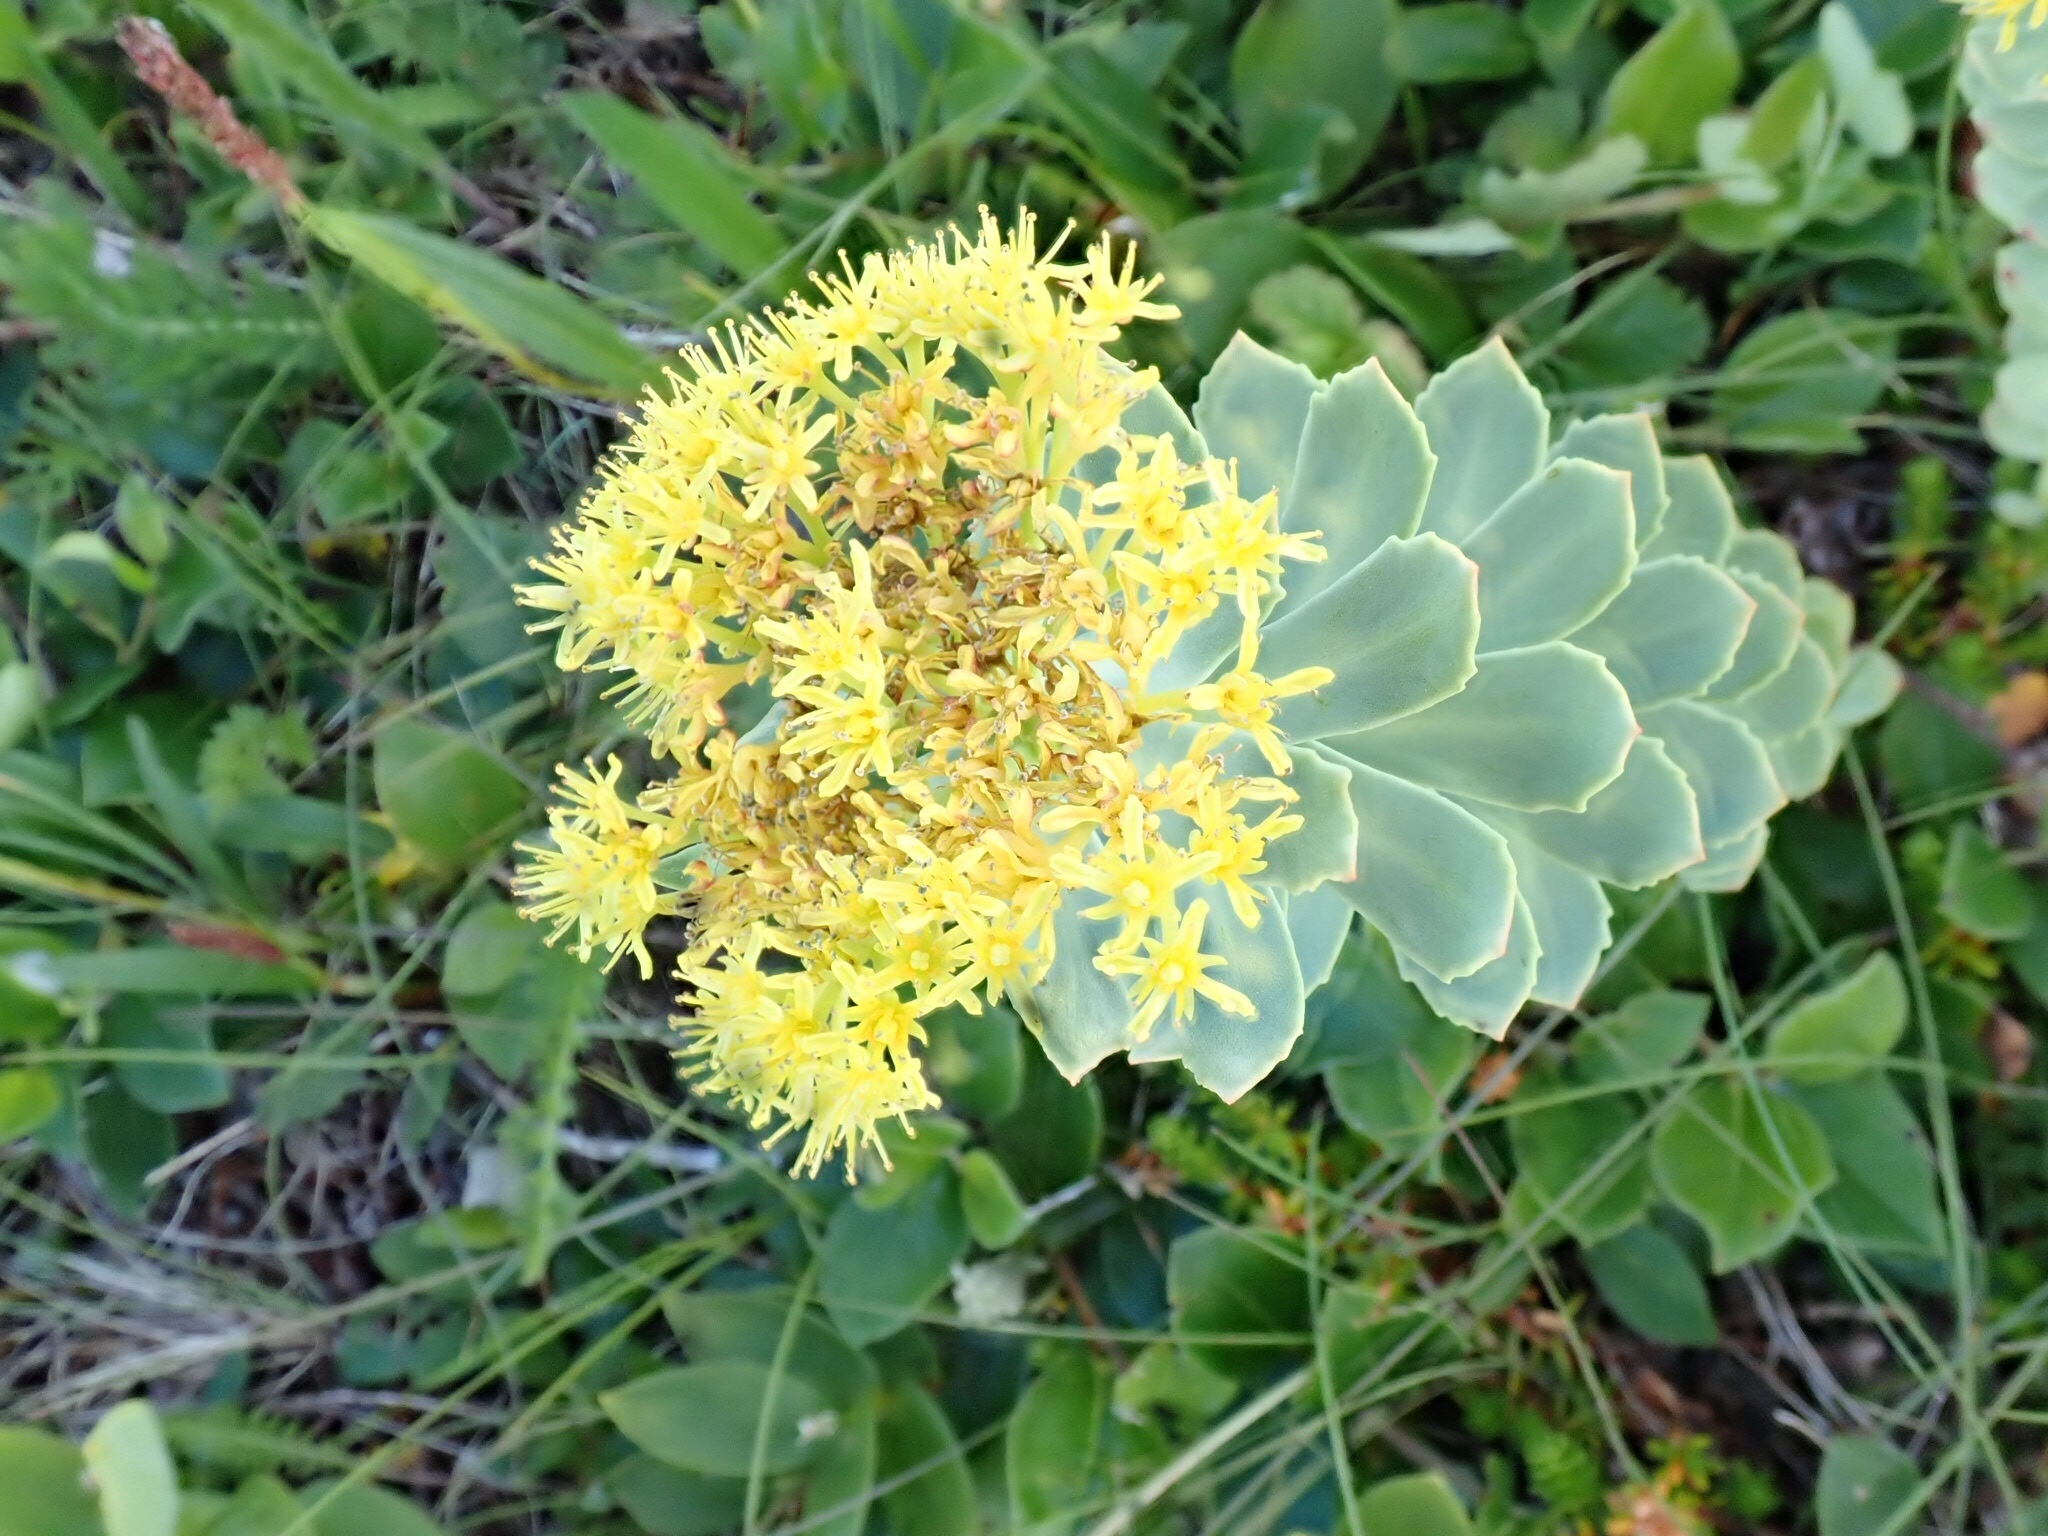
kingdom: Plantae
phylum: Tracheophyta
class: Magnoliopsida
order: Saxifragales
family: Crassulaceae
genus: Rhodiola
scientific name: Rhodiola rosea
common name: Roseroot
